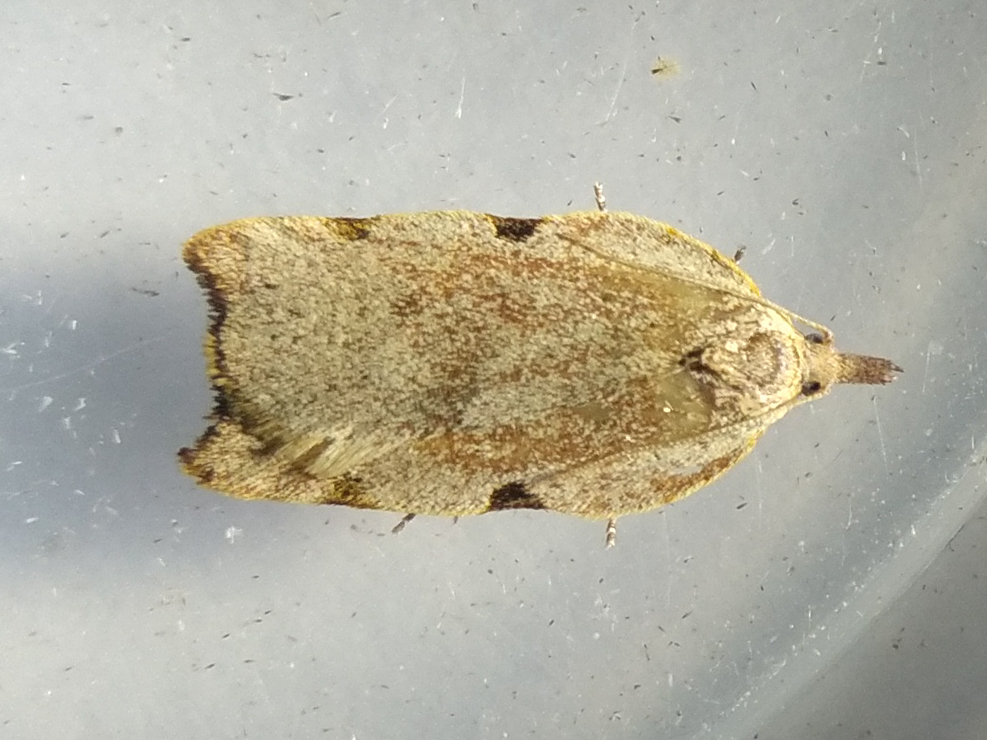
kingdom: Animalia
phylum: Arthropoda
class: Insecta
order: Lepidoptera
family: Tortricidae
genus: Apoctena
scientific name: Apoctena flavescens
